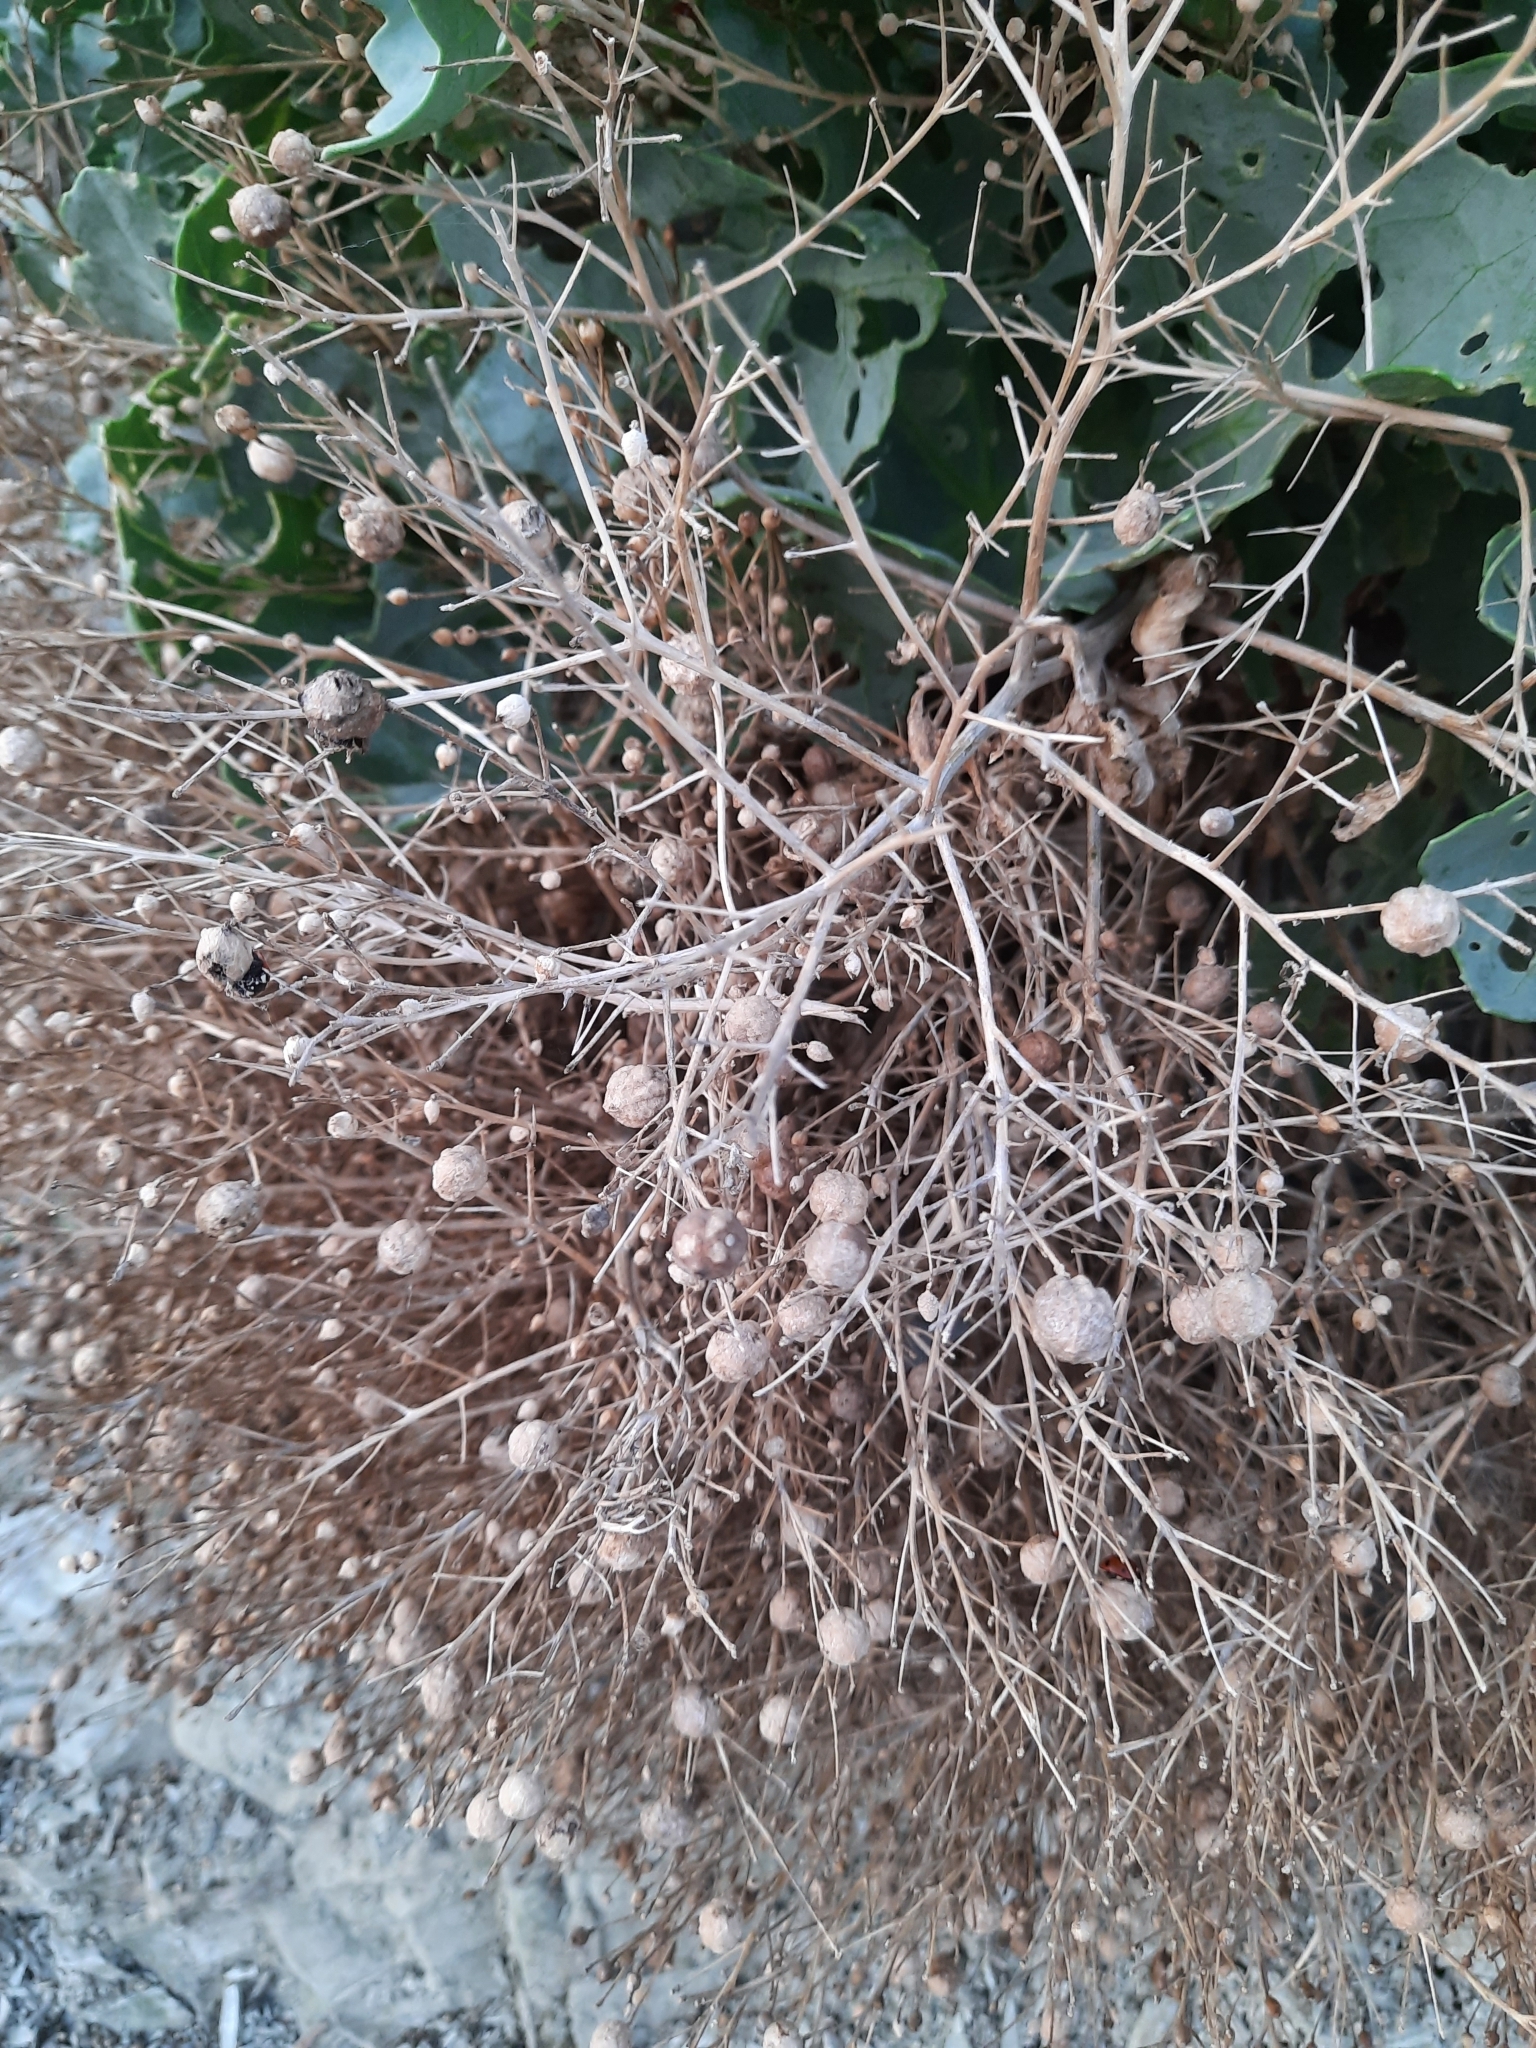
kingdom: Plantae
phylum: Tracheophyta
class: Magnoliopsida
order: Brassicales
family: Brassicaceae
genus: Crambe
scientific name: Crambe maritima
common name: Sea-kale
